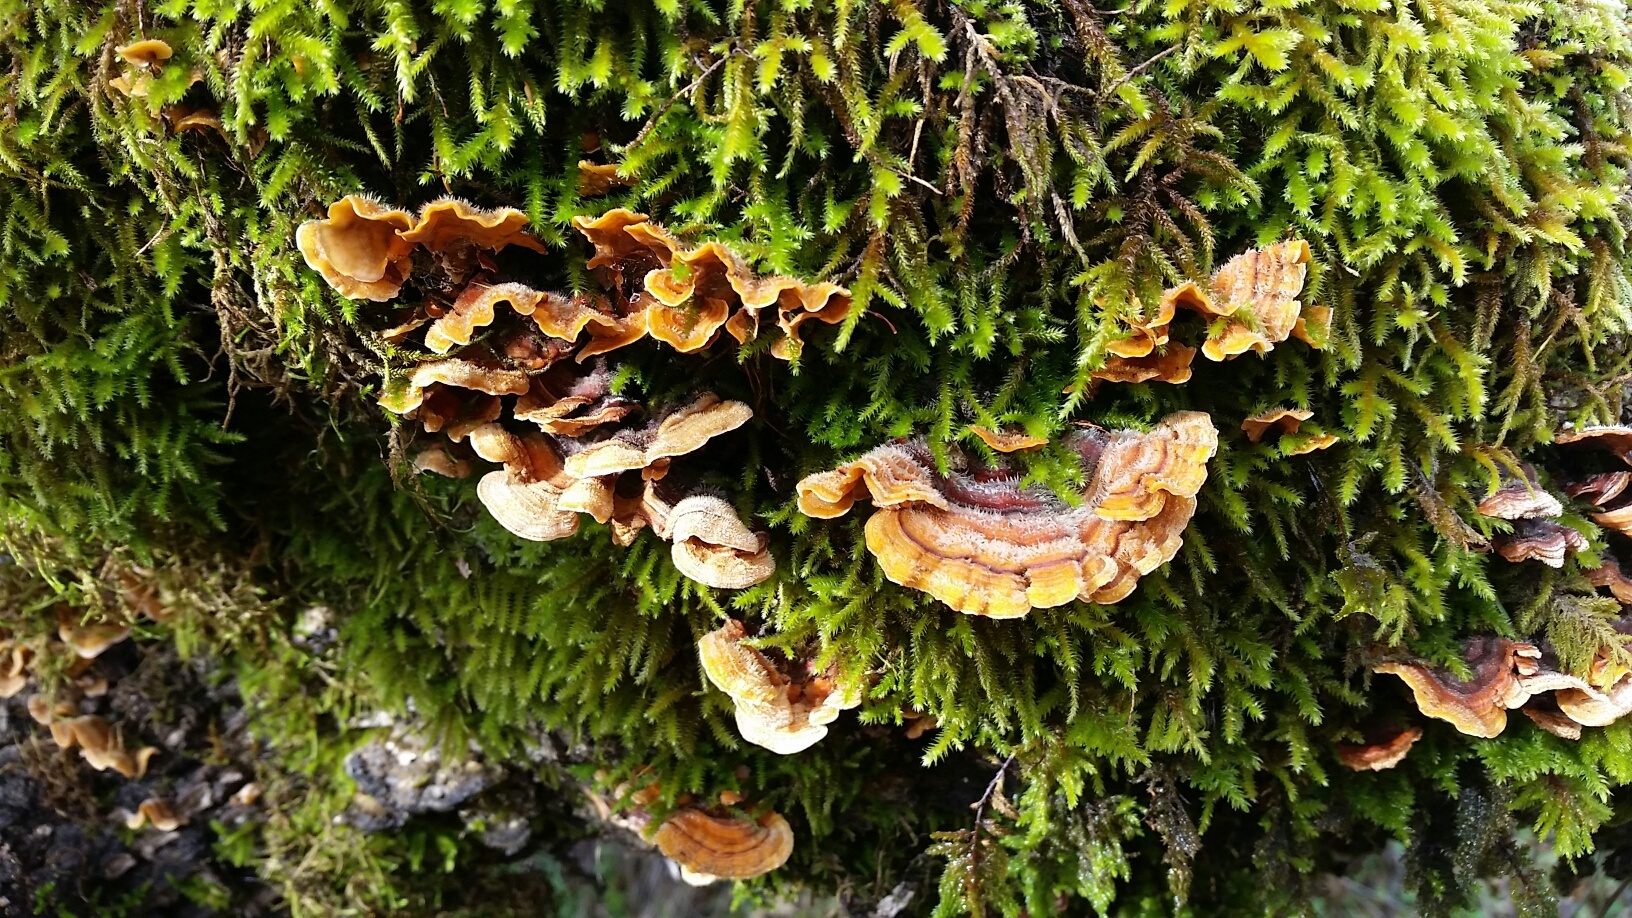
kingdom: Fungi
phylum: Basidiomycota
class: Agaricomycetes
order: Russulales
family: Stereaceae
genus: Stereum
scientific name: Stereum hirsutum
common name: Hairy curtain crust
